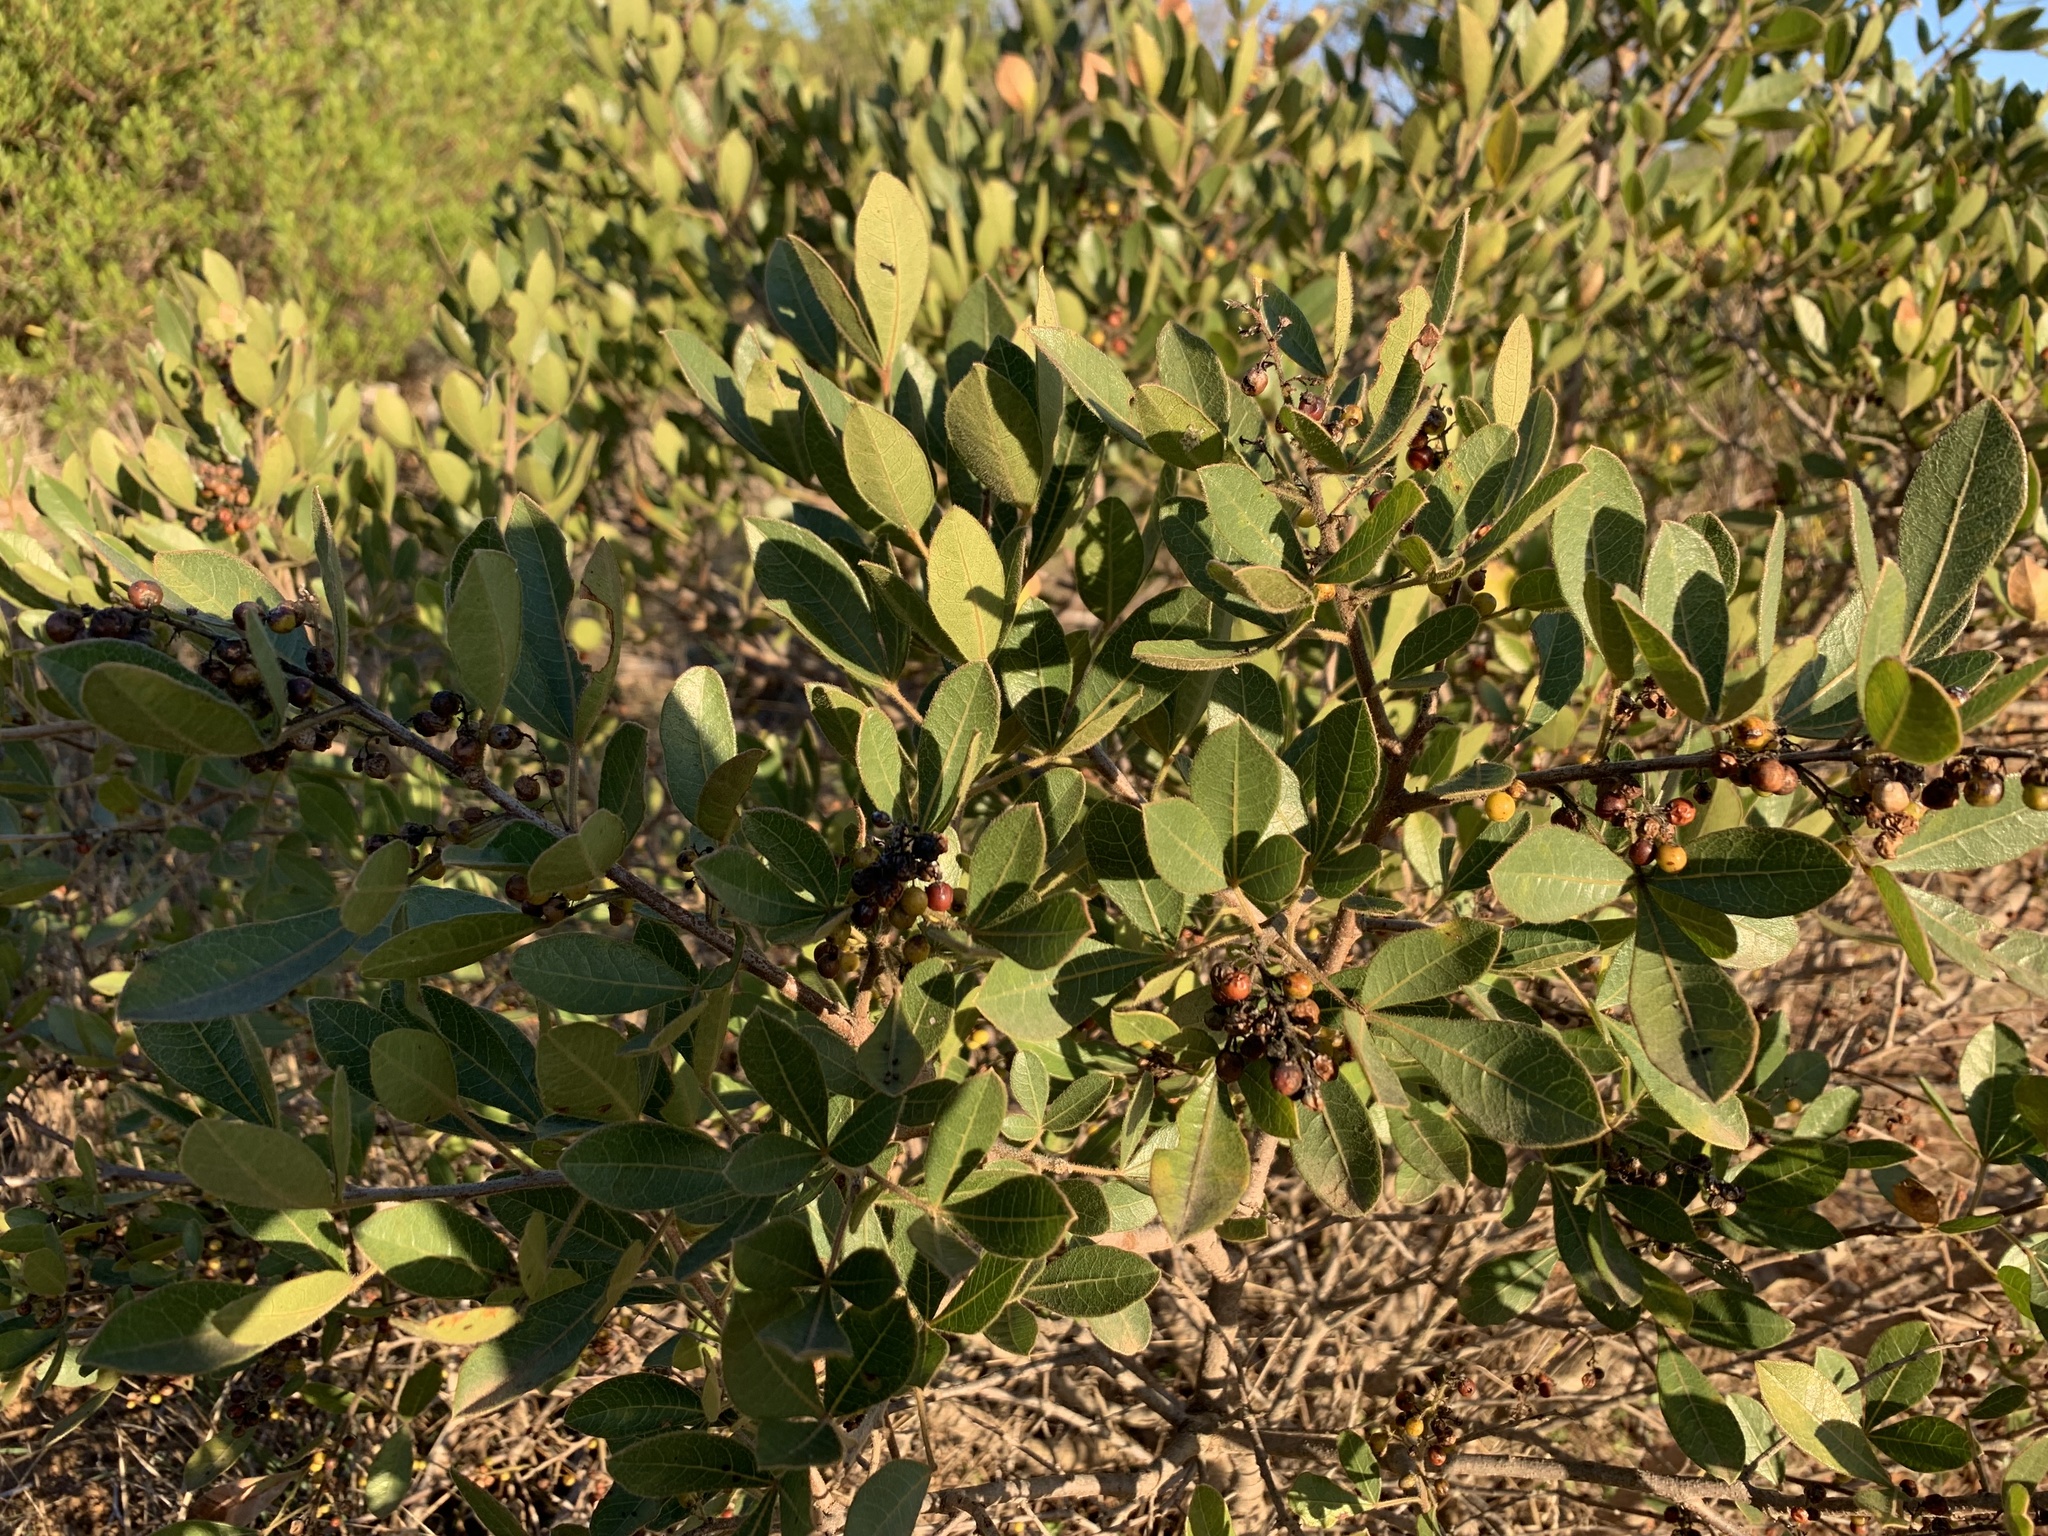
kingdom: Plantae
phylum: Tracheophyta
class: Magnoliopsida
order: Sapindales
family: Anacardiaceae
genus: Searsia
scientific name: Searsia laevigata
